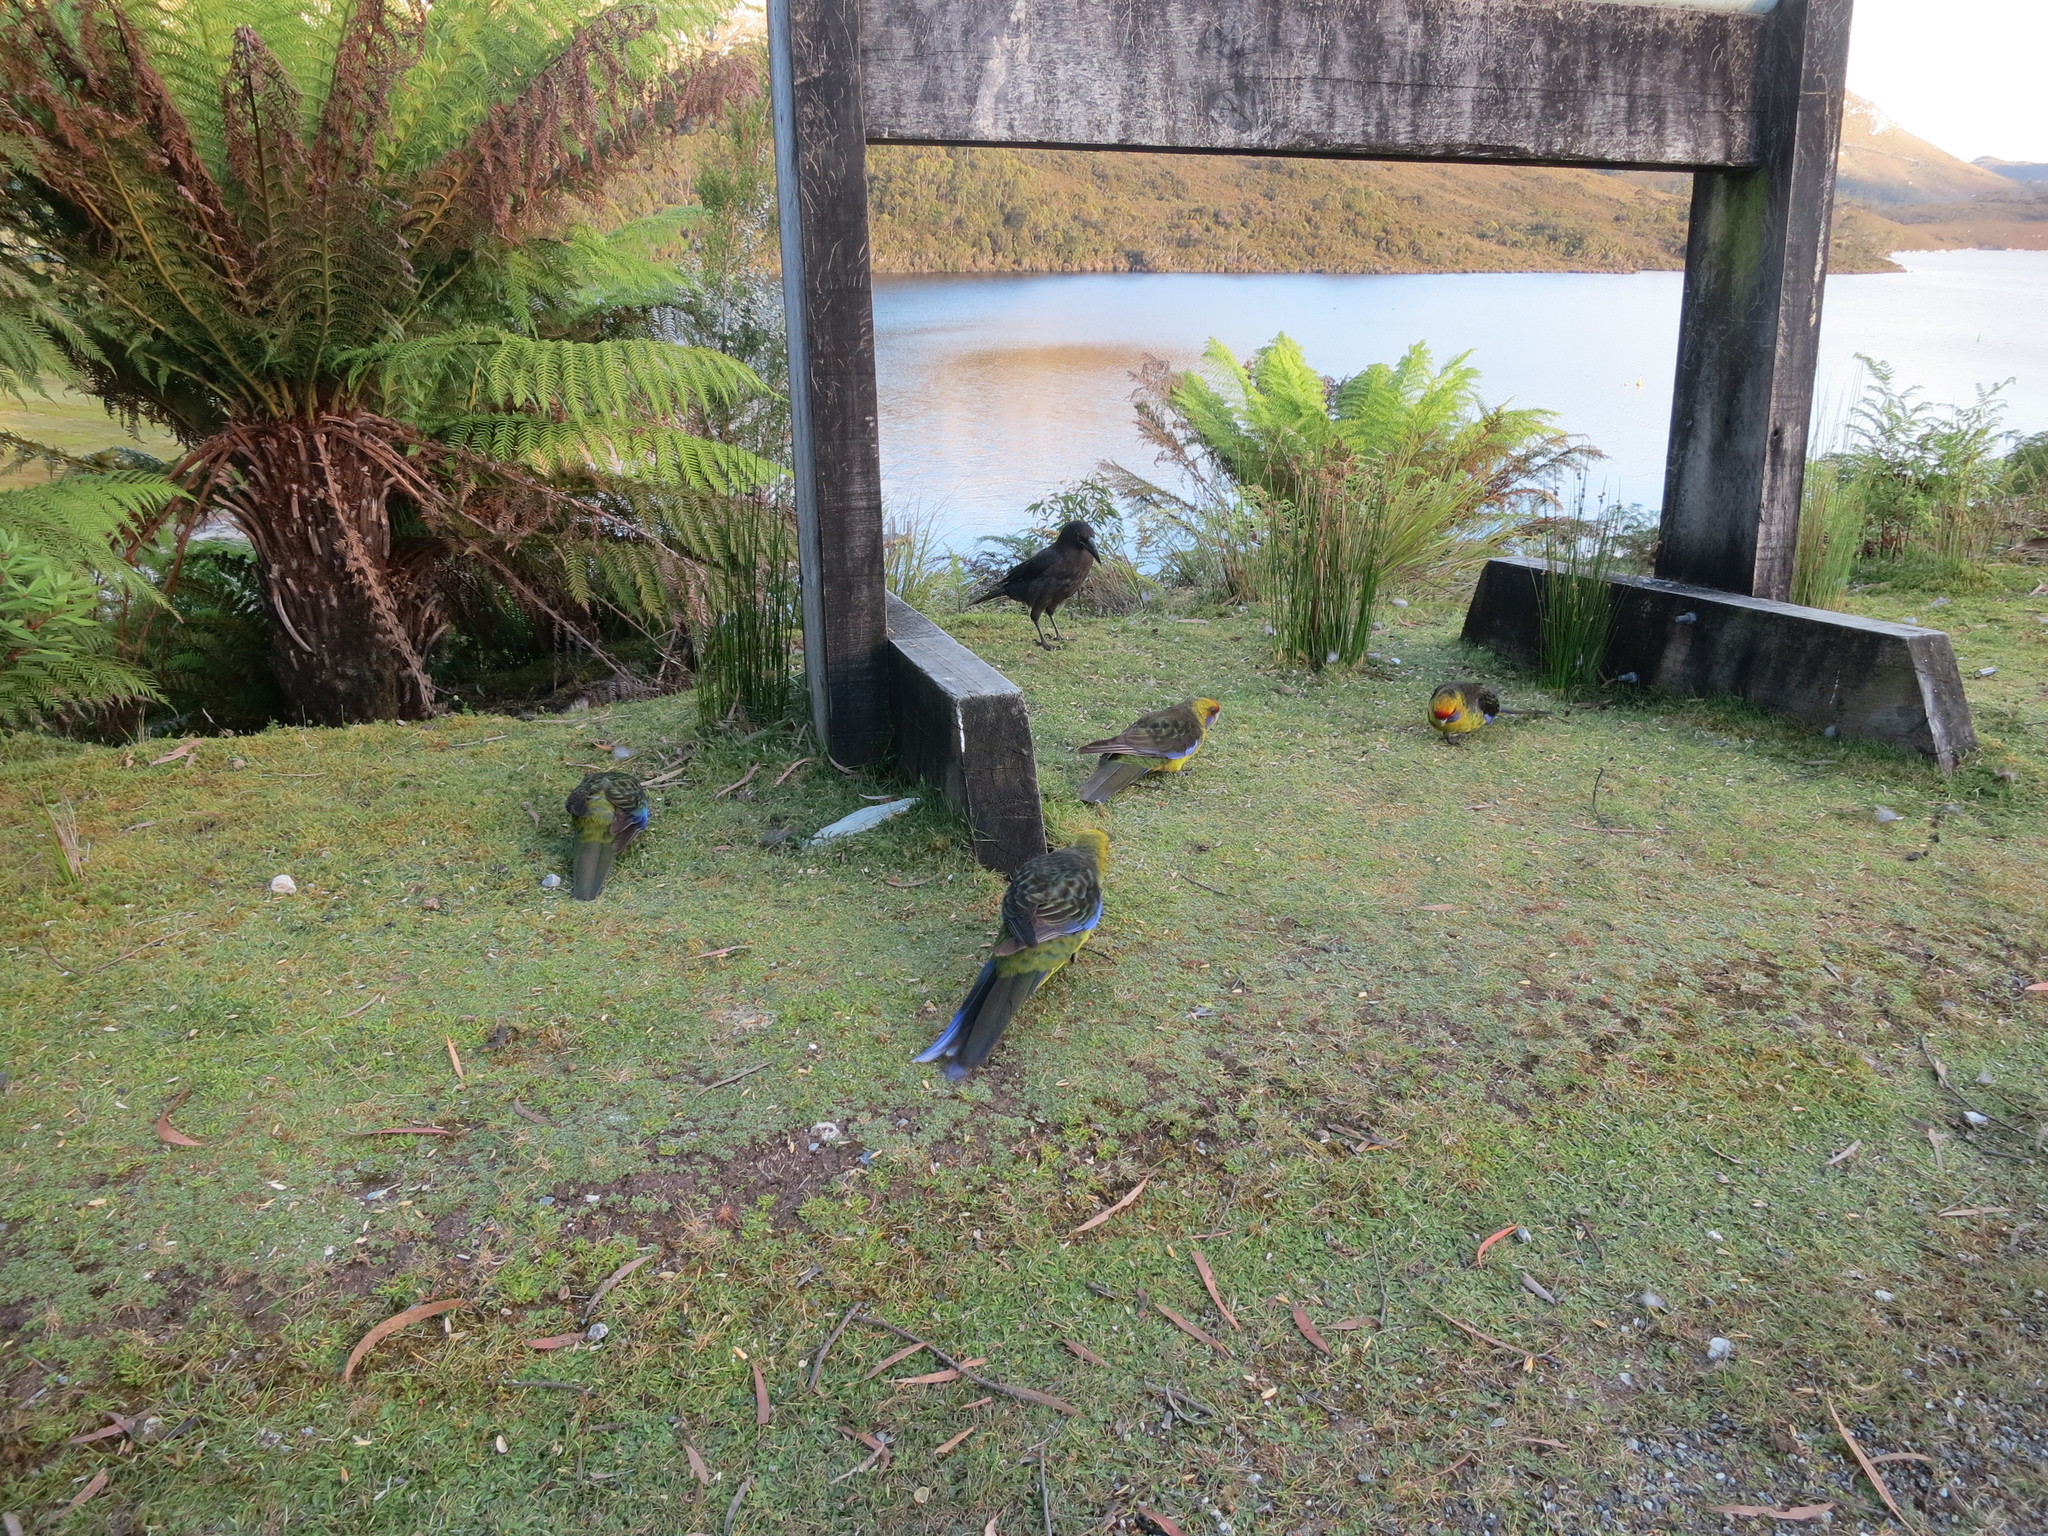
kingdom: Animalia
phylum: Chordata
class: Aves
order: Psittaciformes
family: Psittacidae
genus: Platycercus
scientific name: Platycercus caledonicus
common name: Green rosella
